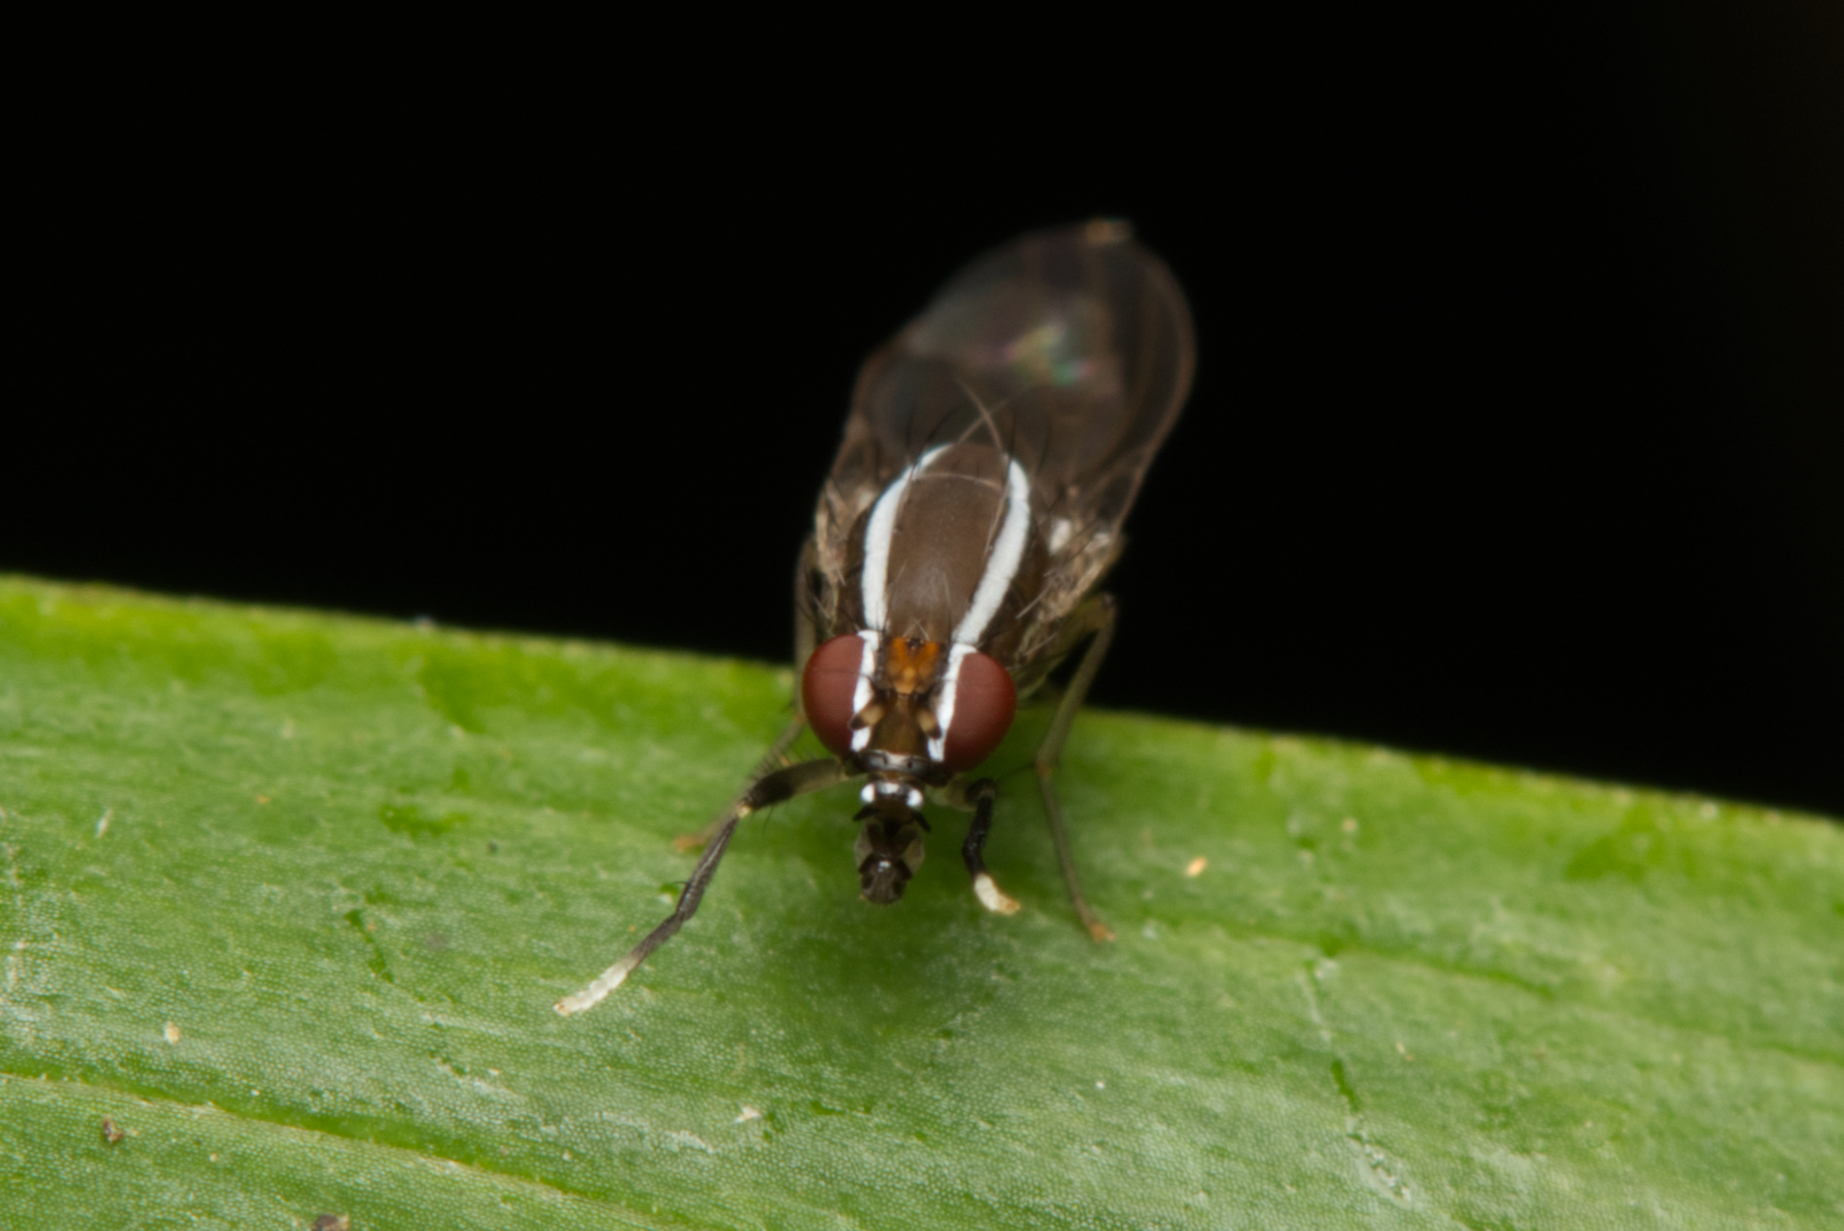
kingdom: Animalia
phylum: Arthropoda
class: Insecta
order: Diptera
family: Lauxaniidae
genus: Poecilohetaerus
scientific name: Poecilohetaerus convergens
